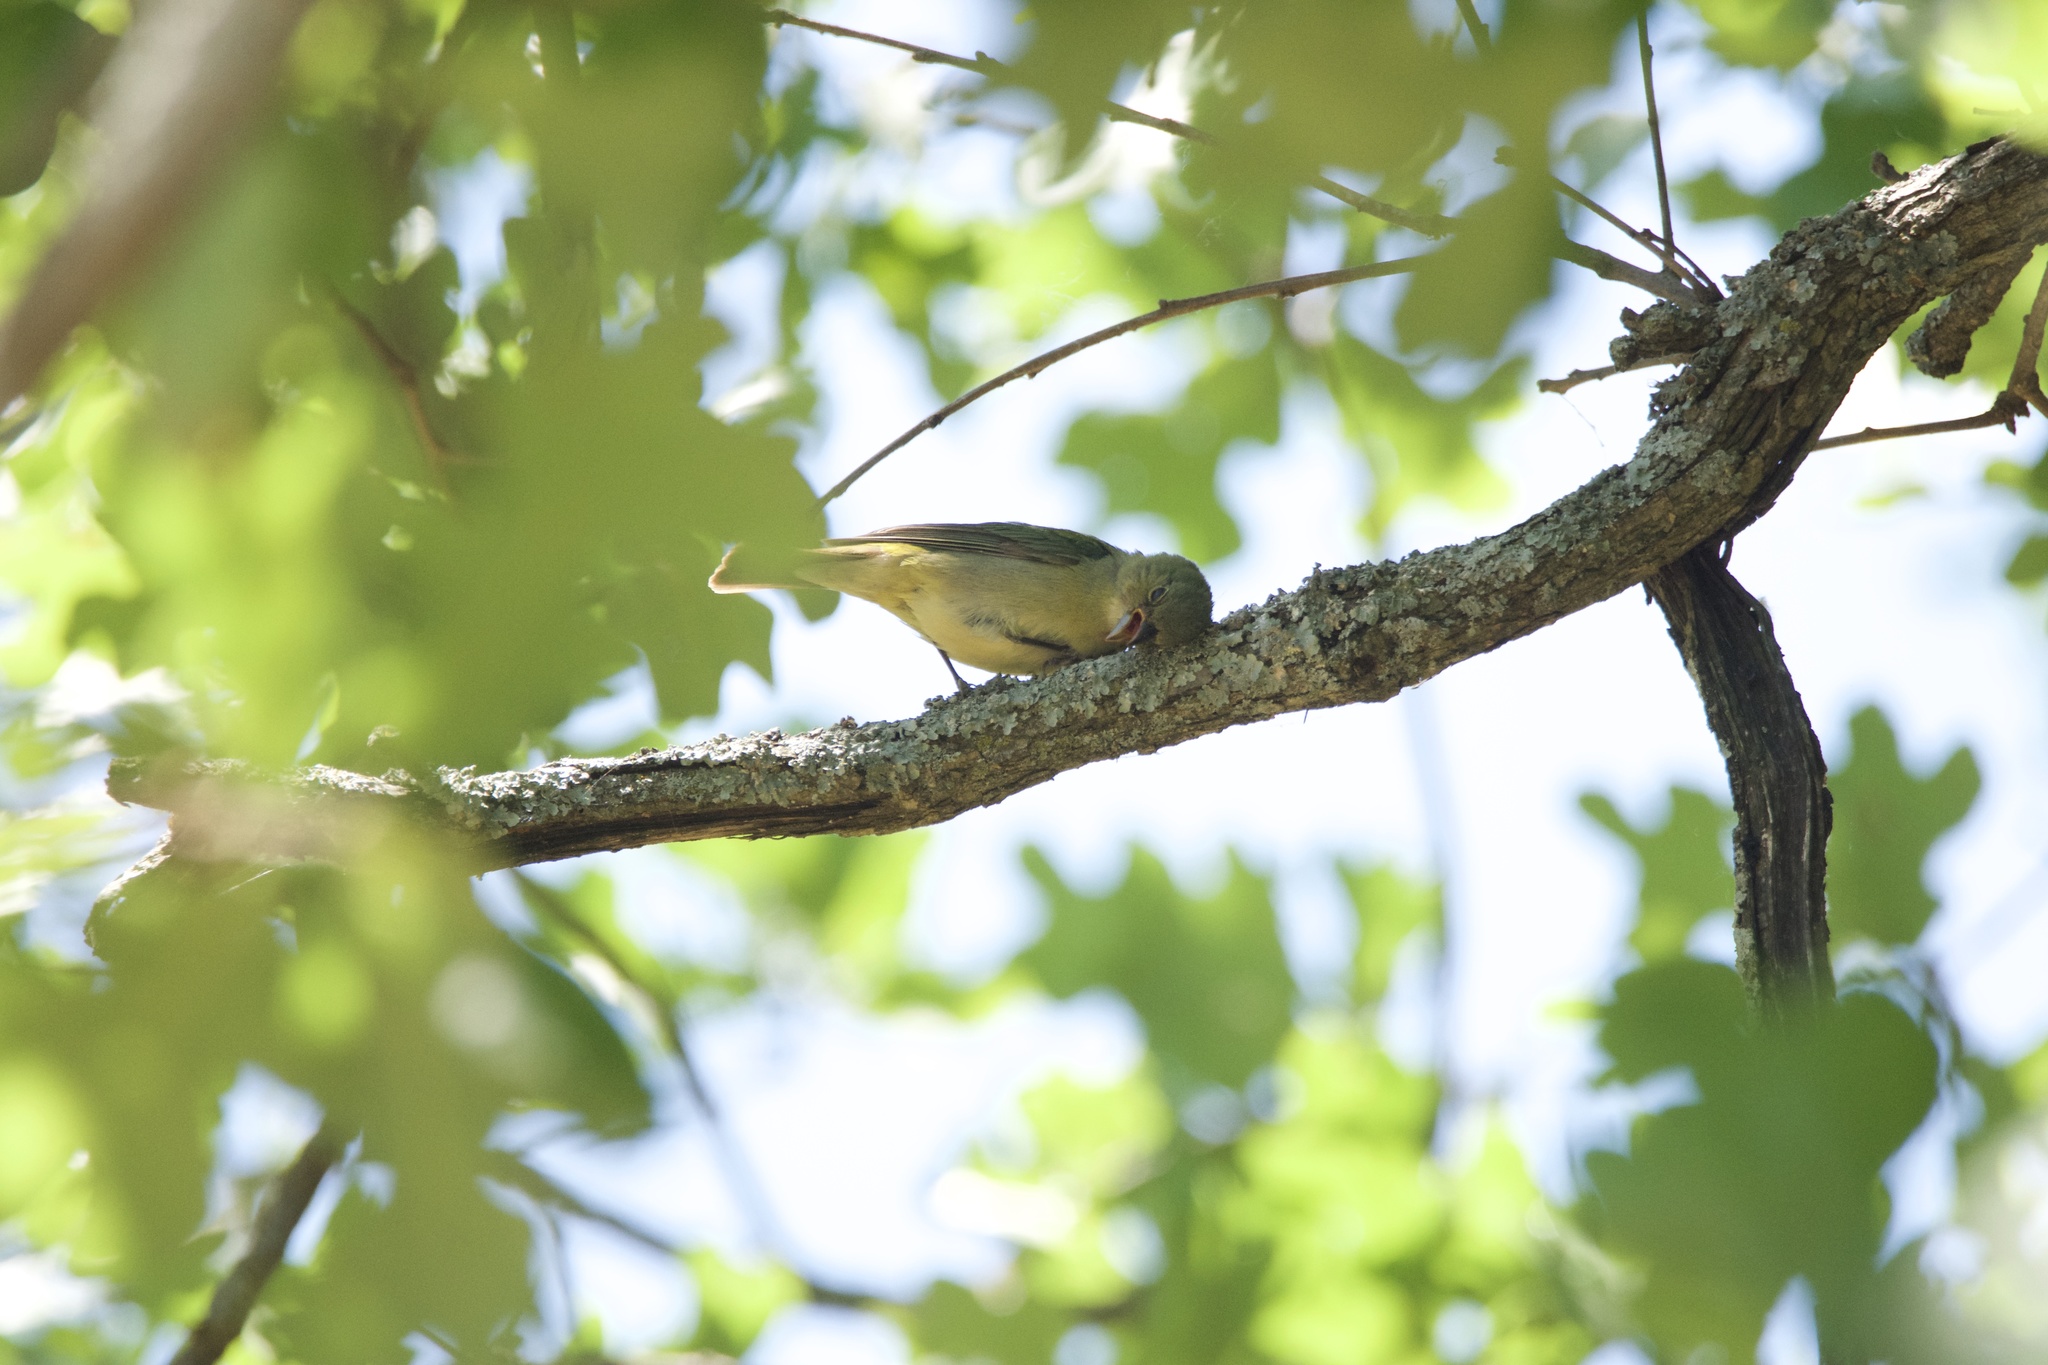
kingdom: Animalia
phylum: Chordata
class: Aves
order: Passeriformes
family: Cardinalidae
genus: Passerina
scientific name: Passerina ciris
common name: Painted bunting
